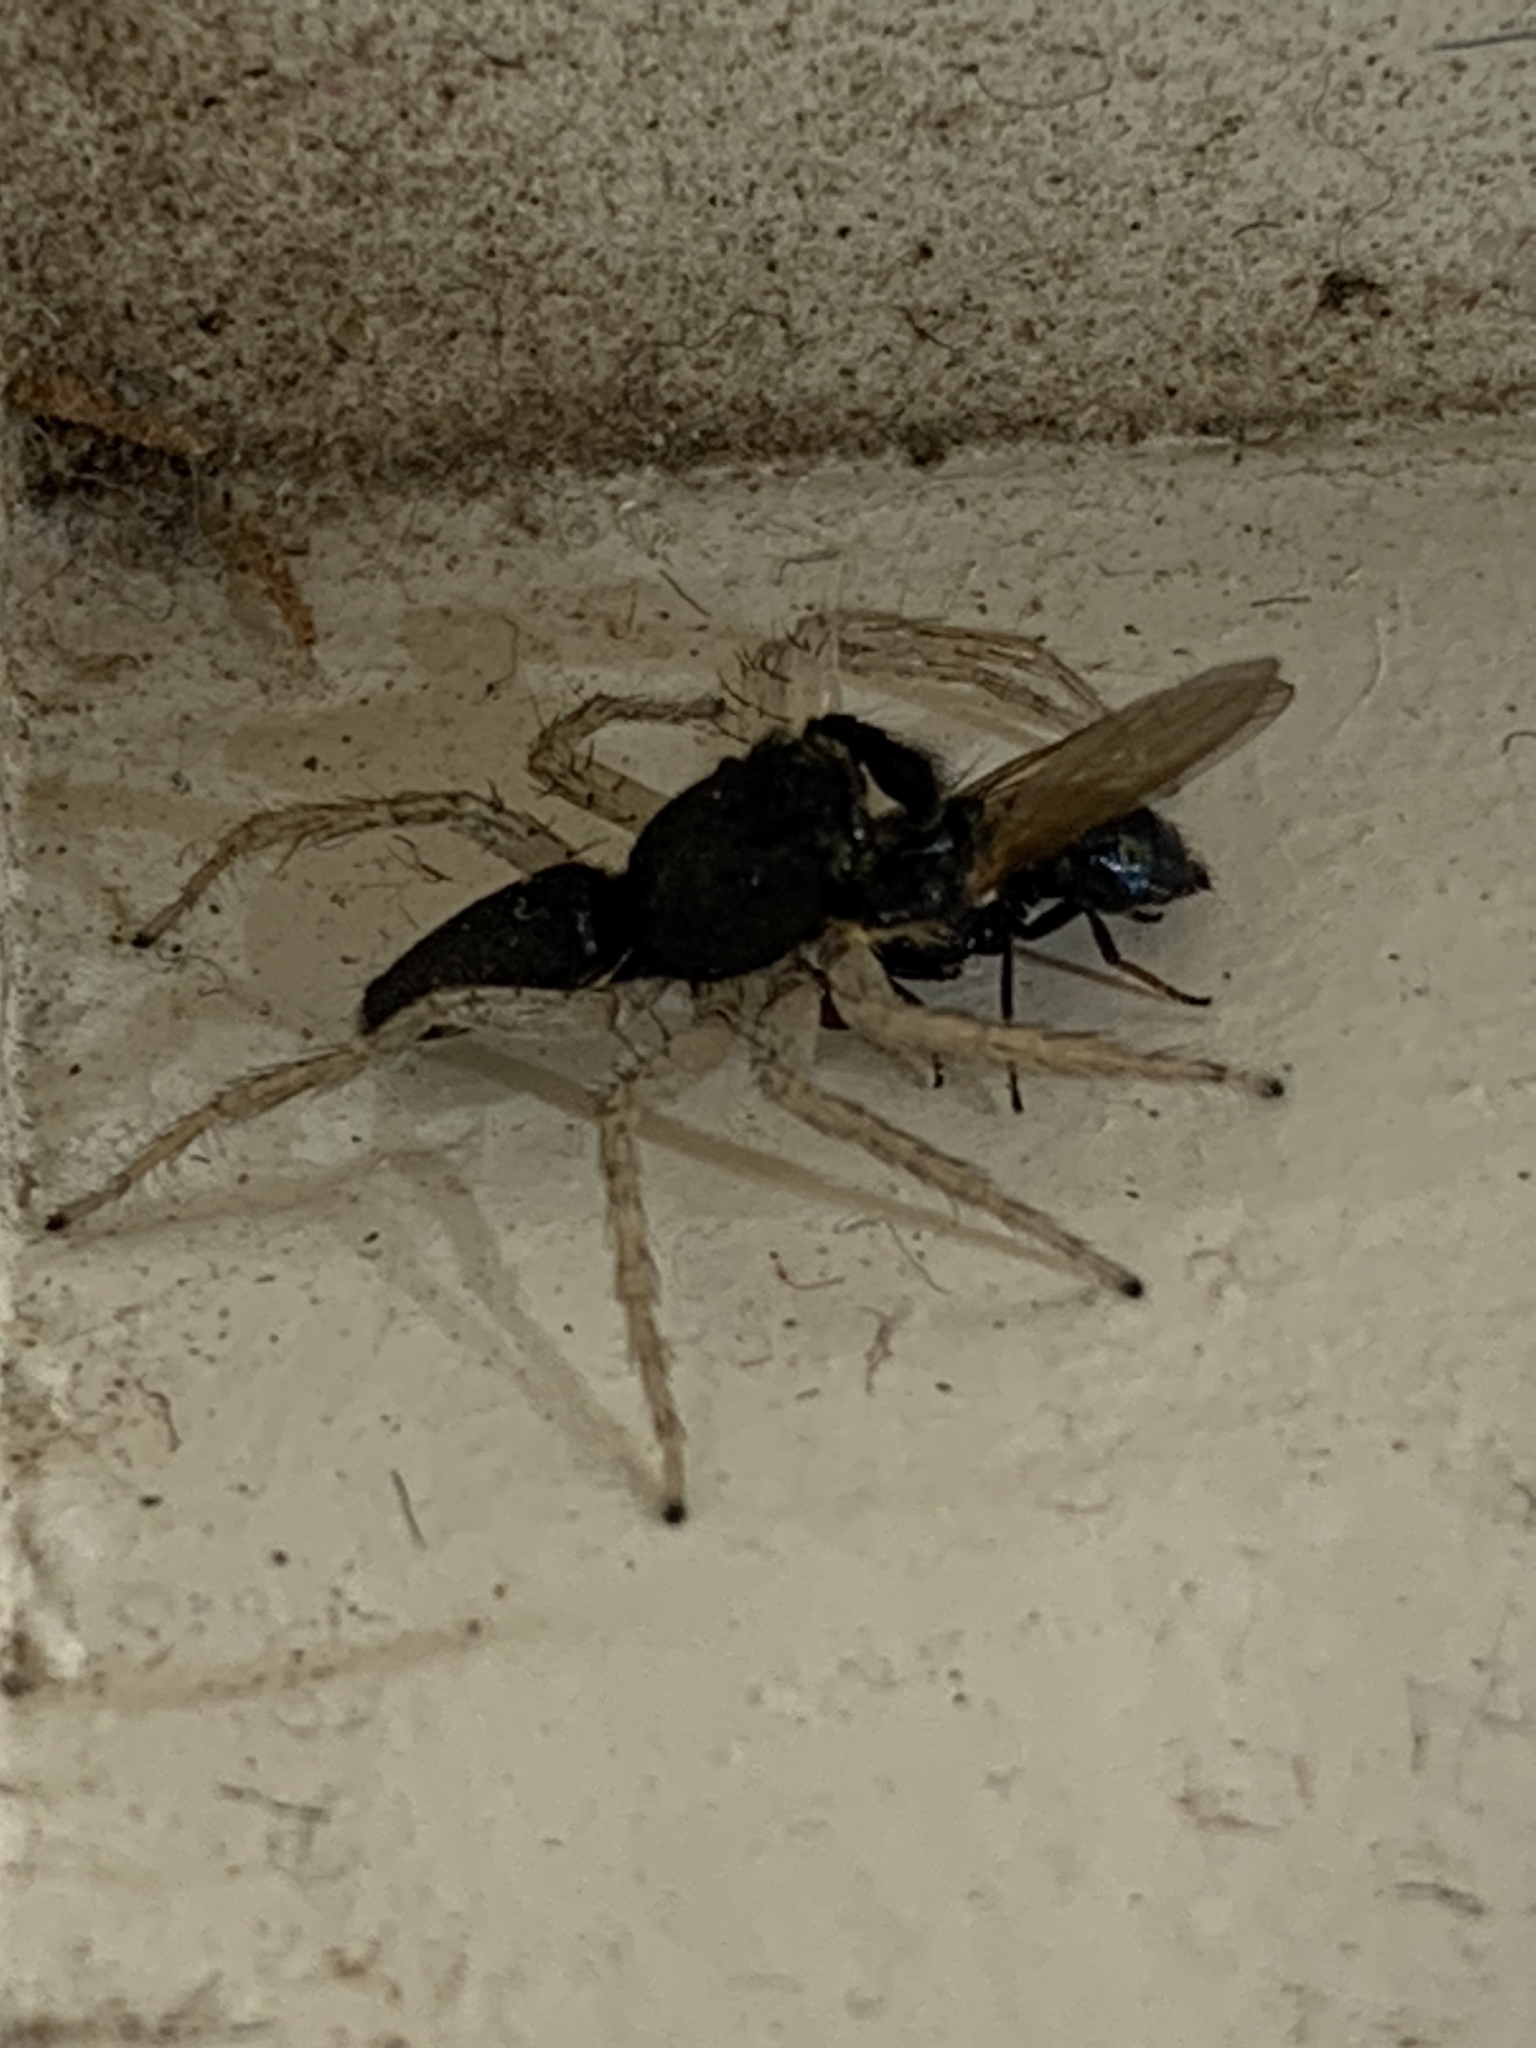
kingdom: Animalia
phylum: Arthropoda
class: Arachnida
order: Araneae
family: Salticidae
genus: Maevia
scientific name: Maevia inclemens
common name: Dimorphic jumper
